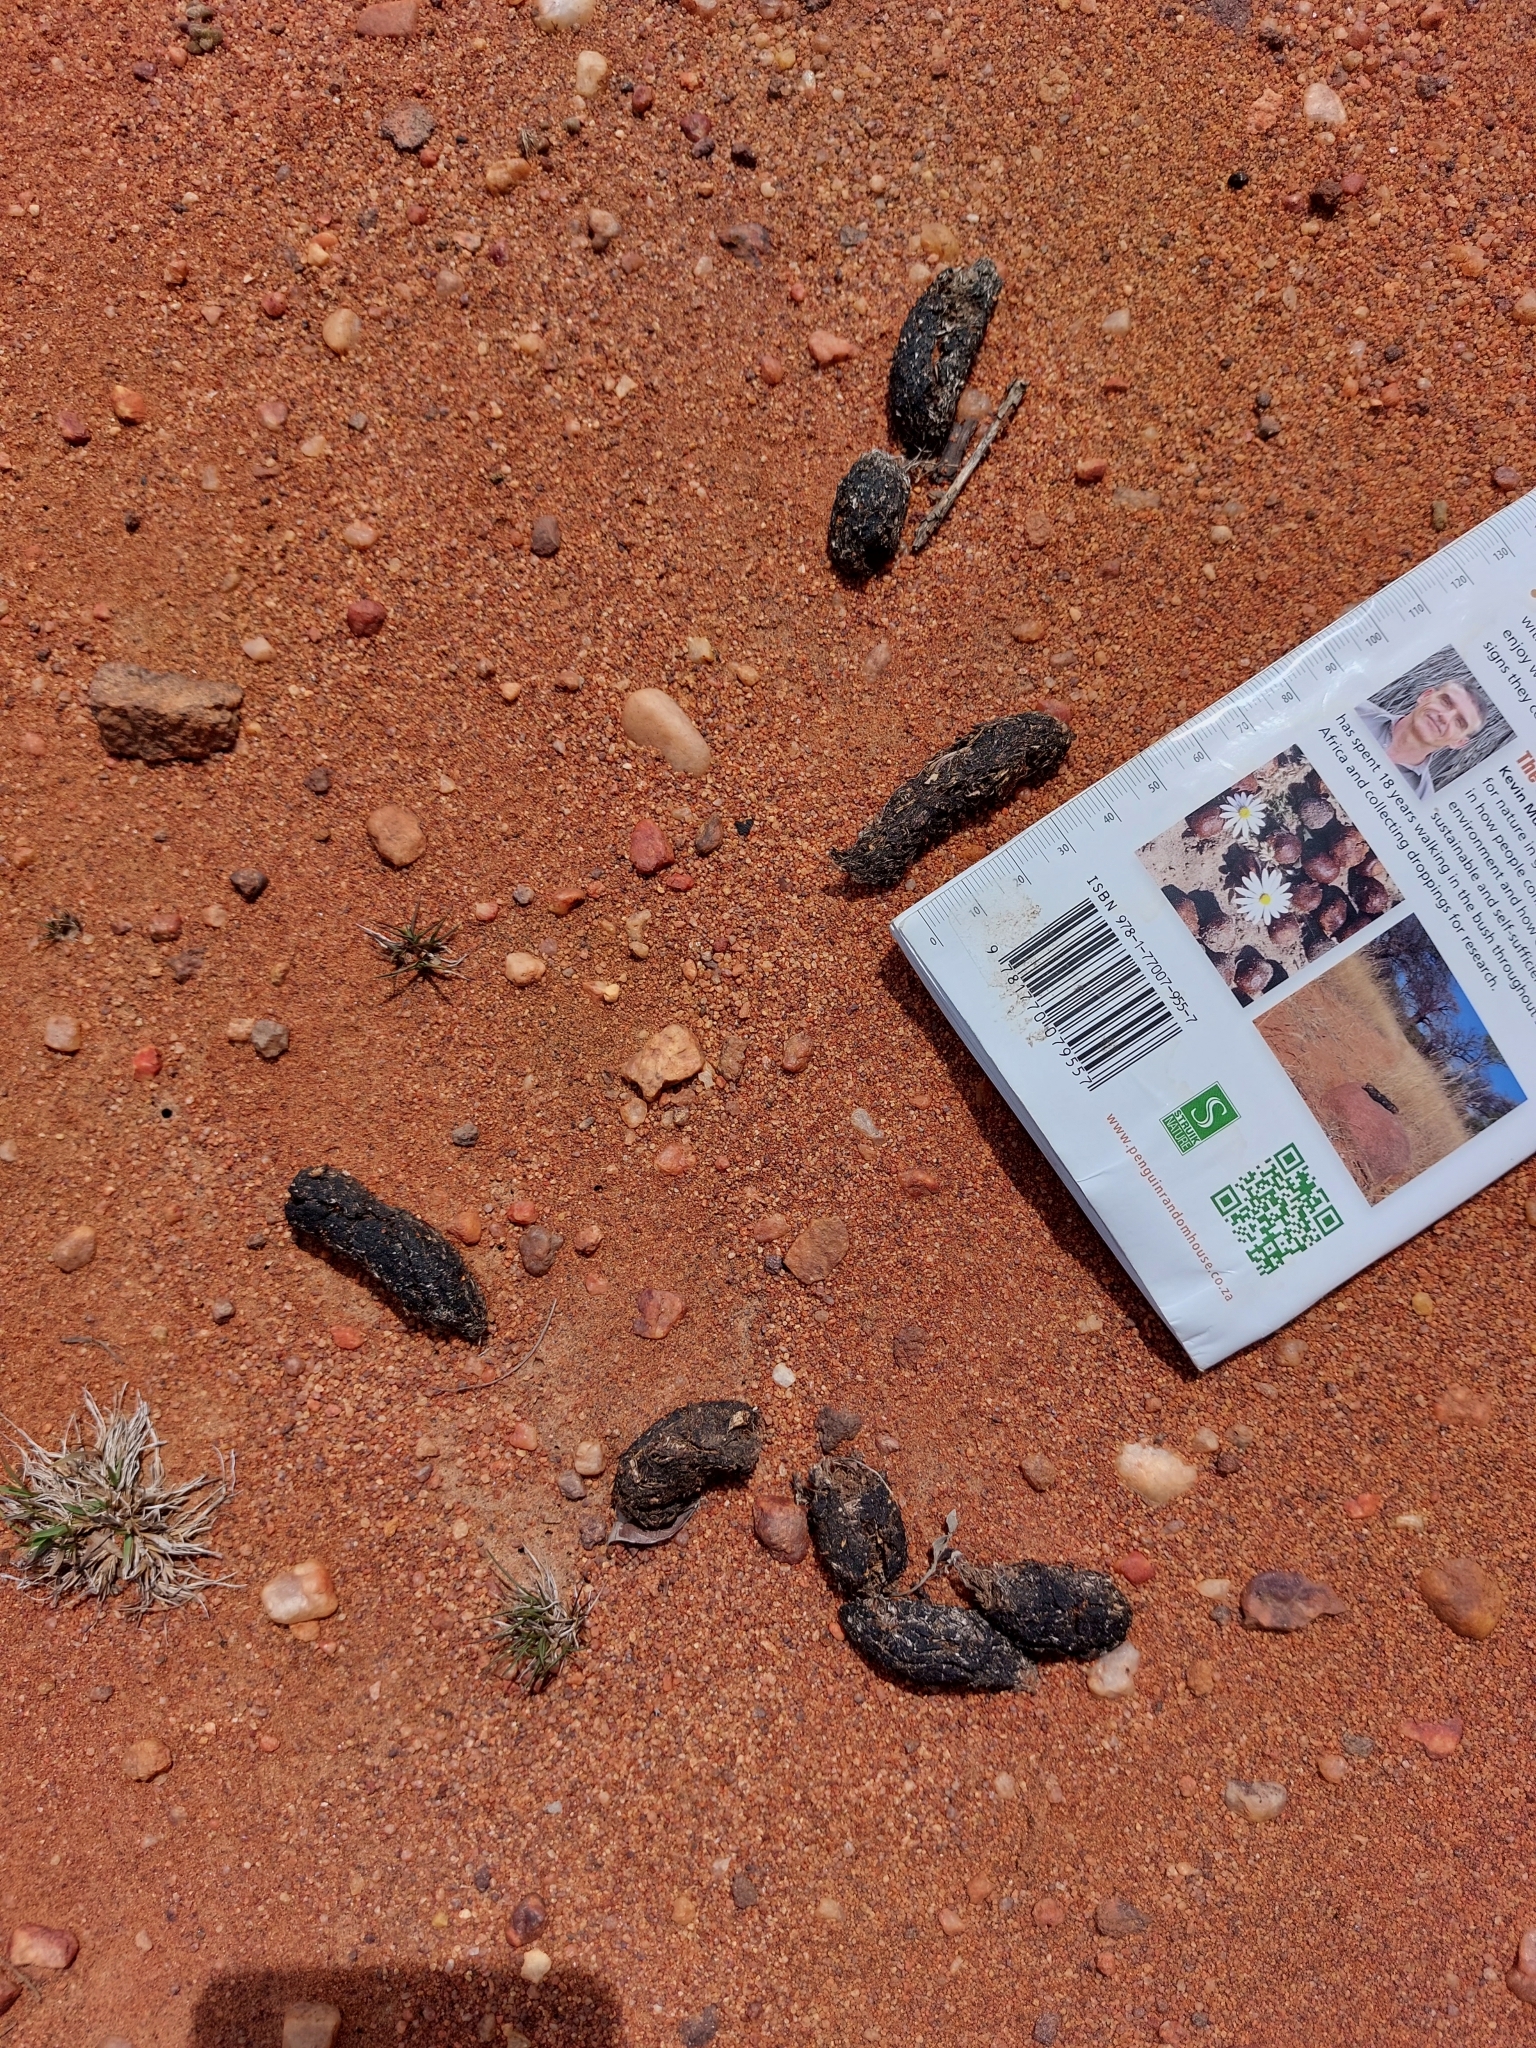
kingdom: Animalia
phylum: Chordata
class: Mammalia
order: Rodentia
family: Hystricidae
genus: Hystrix
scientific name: Hystrix africaeaustralis
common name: Cape porcupine
